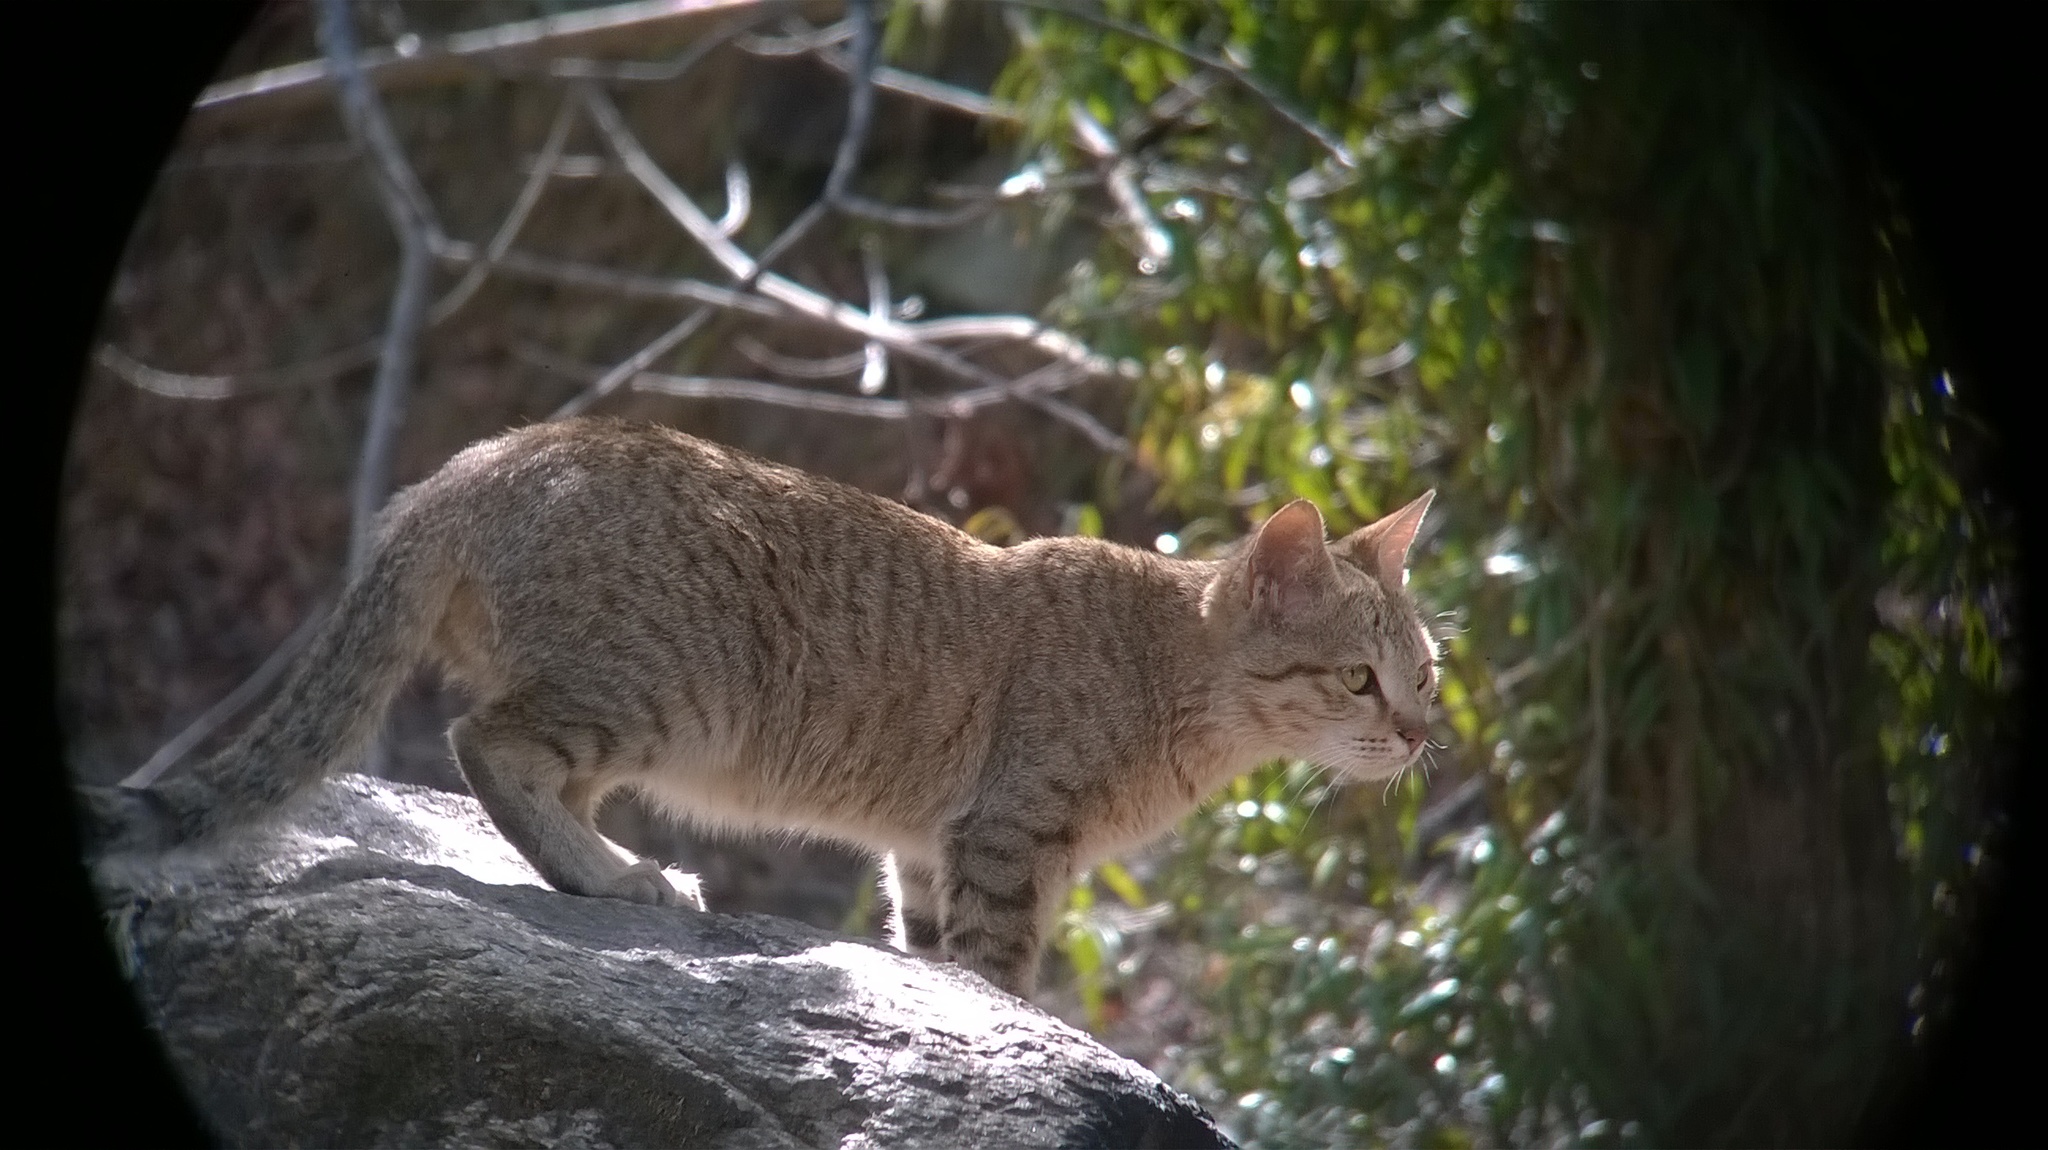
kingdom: Animalia
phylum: Chordata
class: Mammalia
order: Carnivora
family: Felidae
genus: Felis
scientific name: Felis catus
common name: Domestic cat
